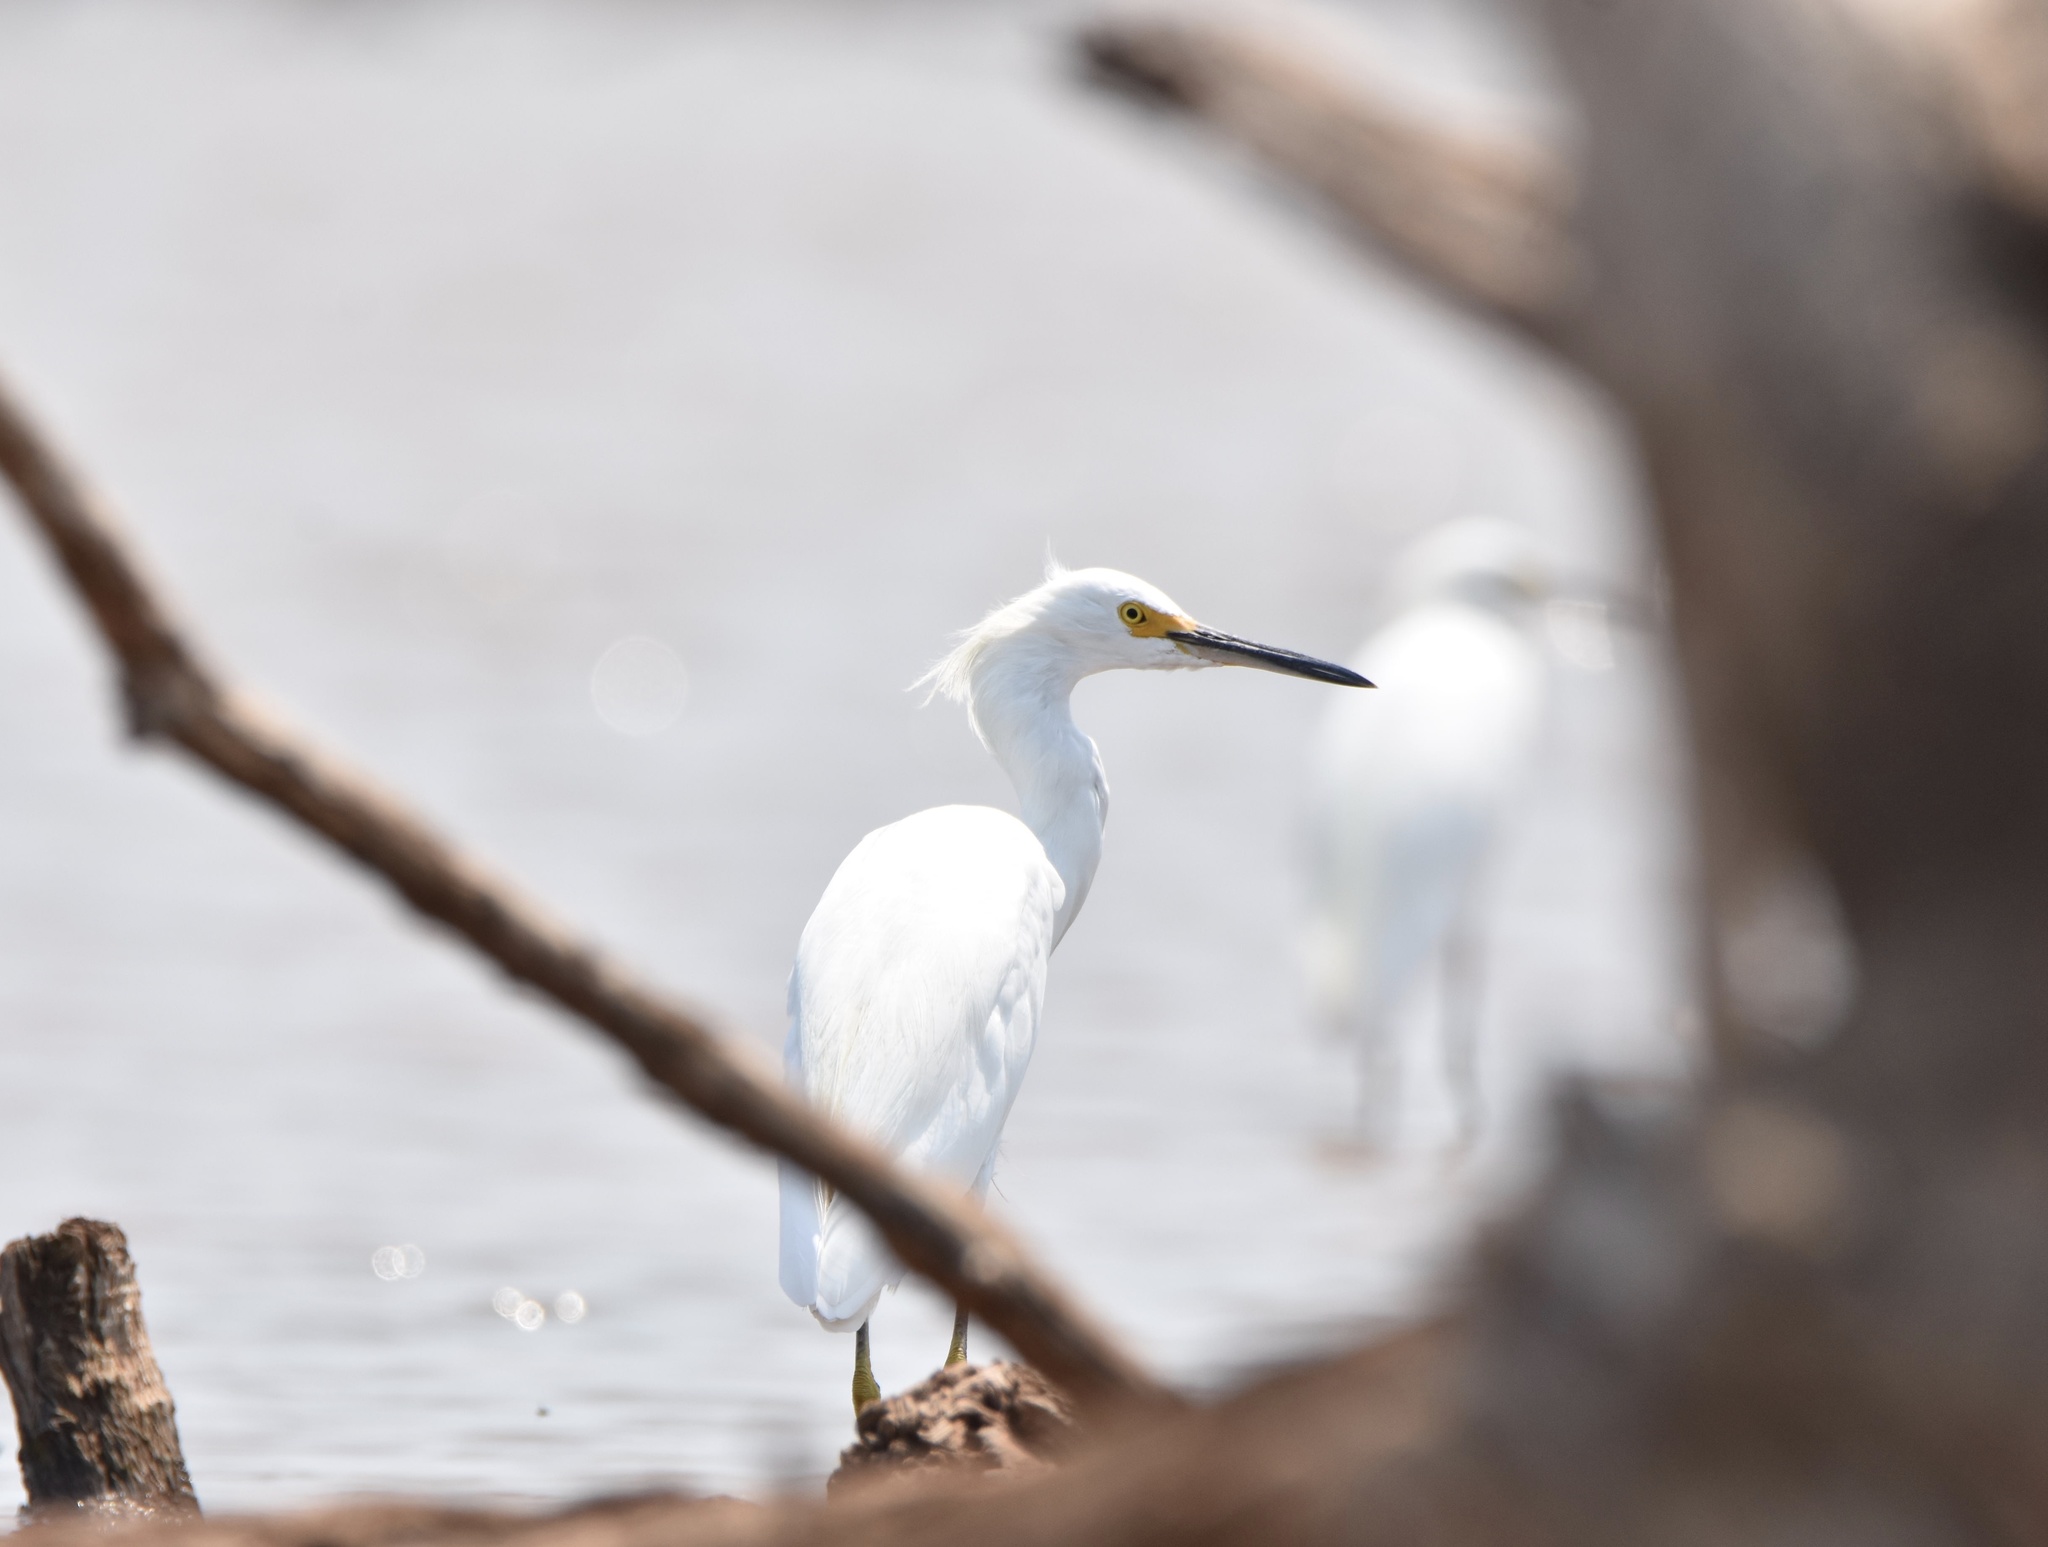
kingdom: Animalia
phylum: Chordata
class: Aves
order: Pelecaniformes
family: Ardeidae
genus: Egretta
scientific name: Egretta thula
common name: Snowy egret
